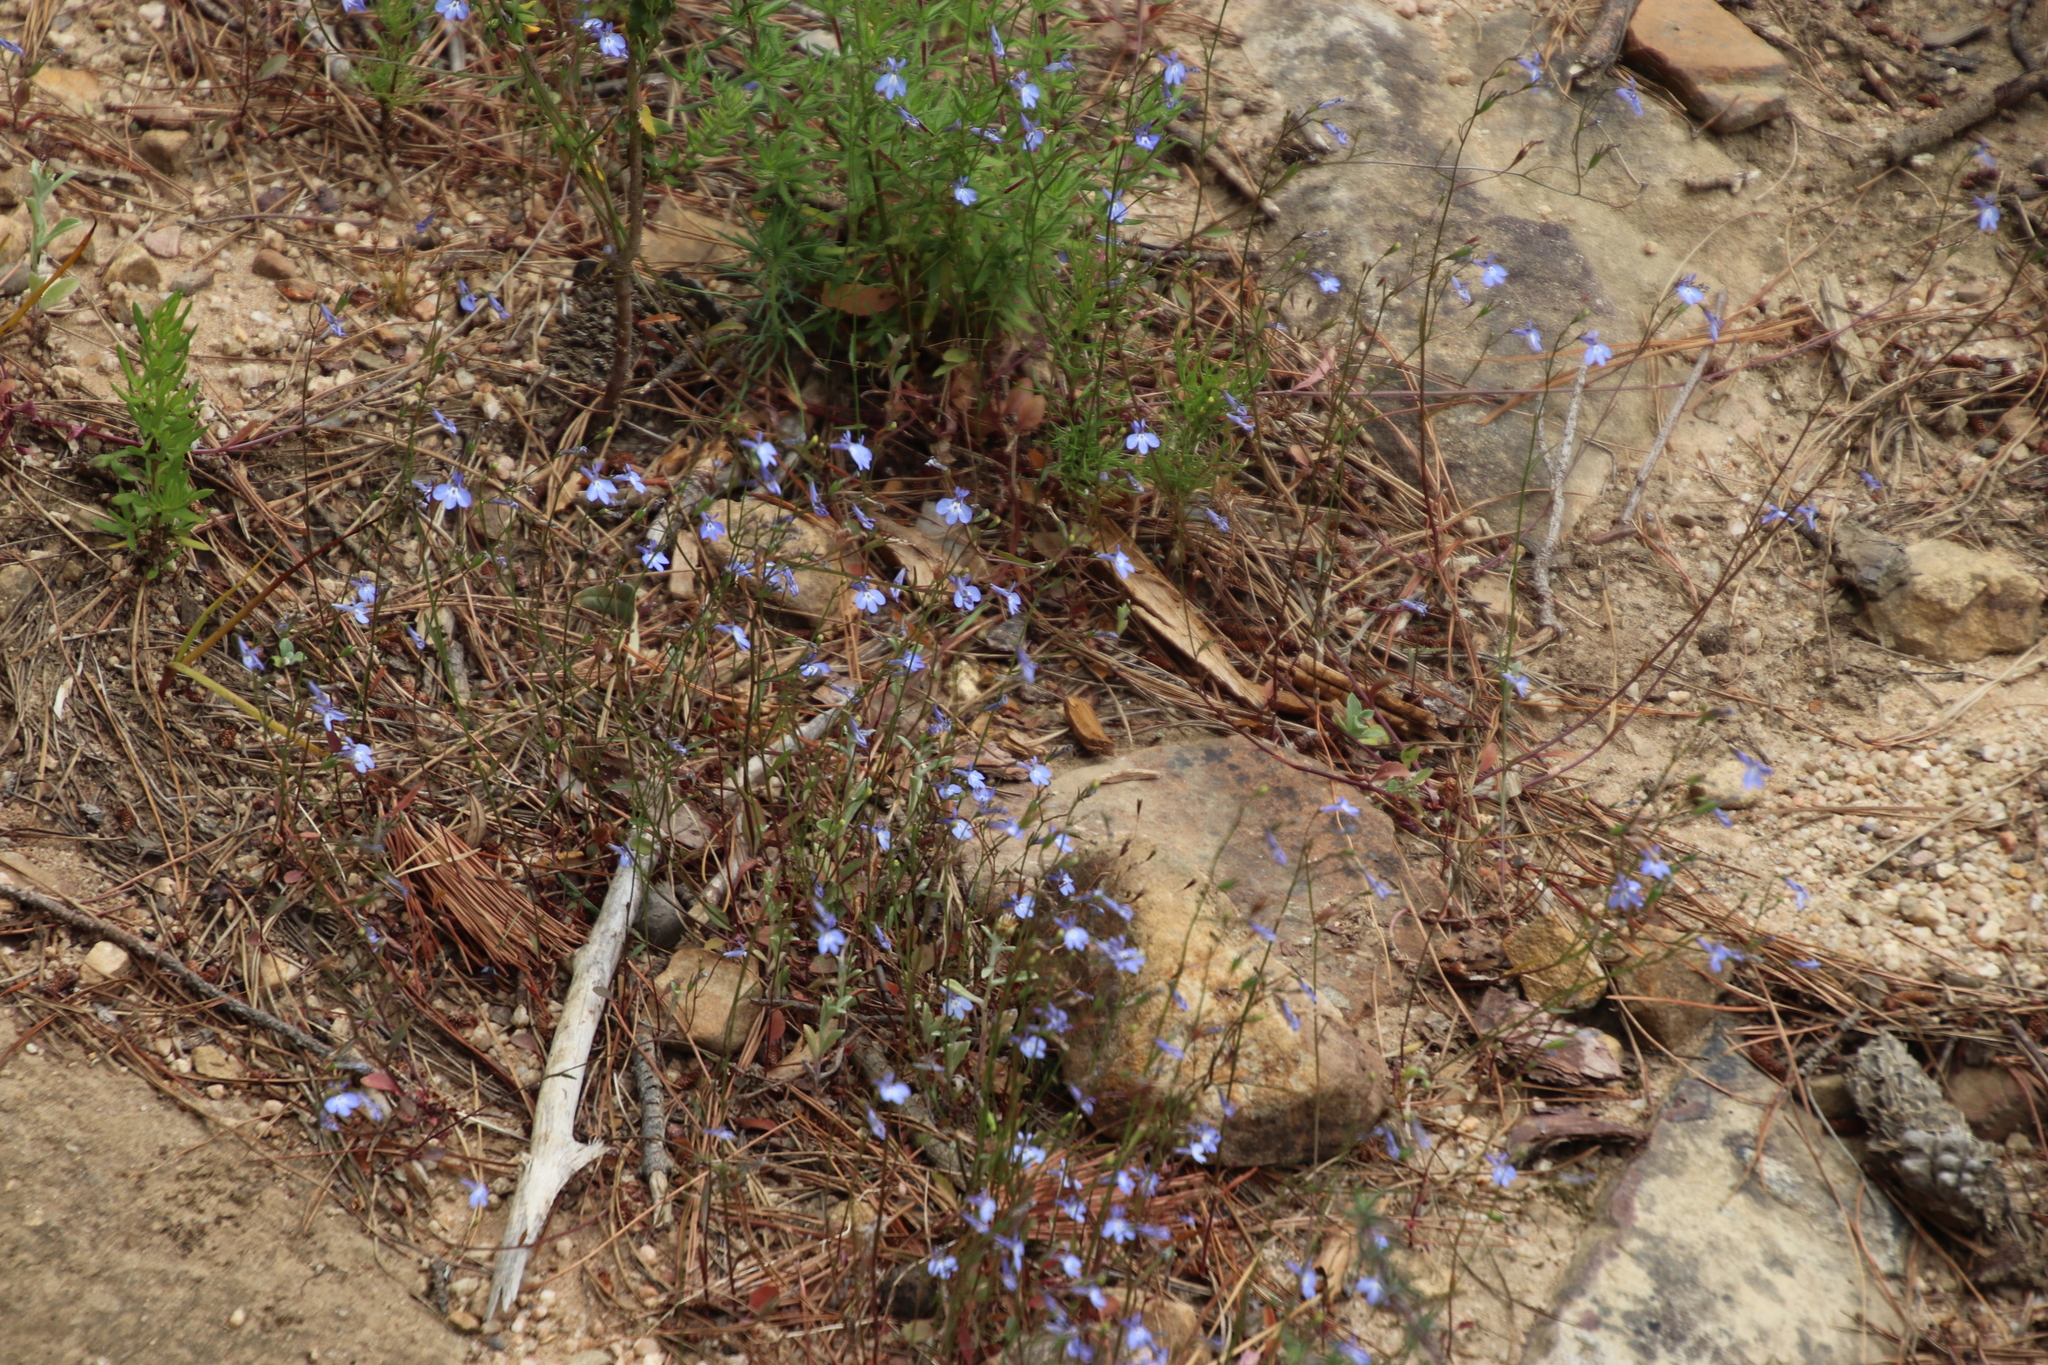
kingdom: Plantae
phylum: Tracheophyta
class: Magnoliopsida
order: Asterales
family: Campanulaceae
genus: Lobelia
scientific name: Lobelia erinus
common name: Edging lobelia
